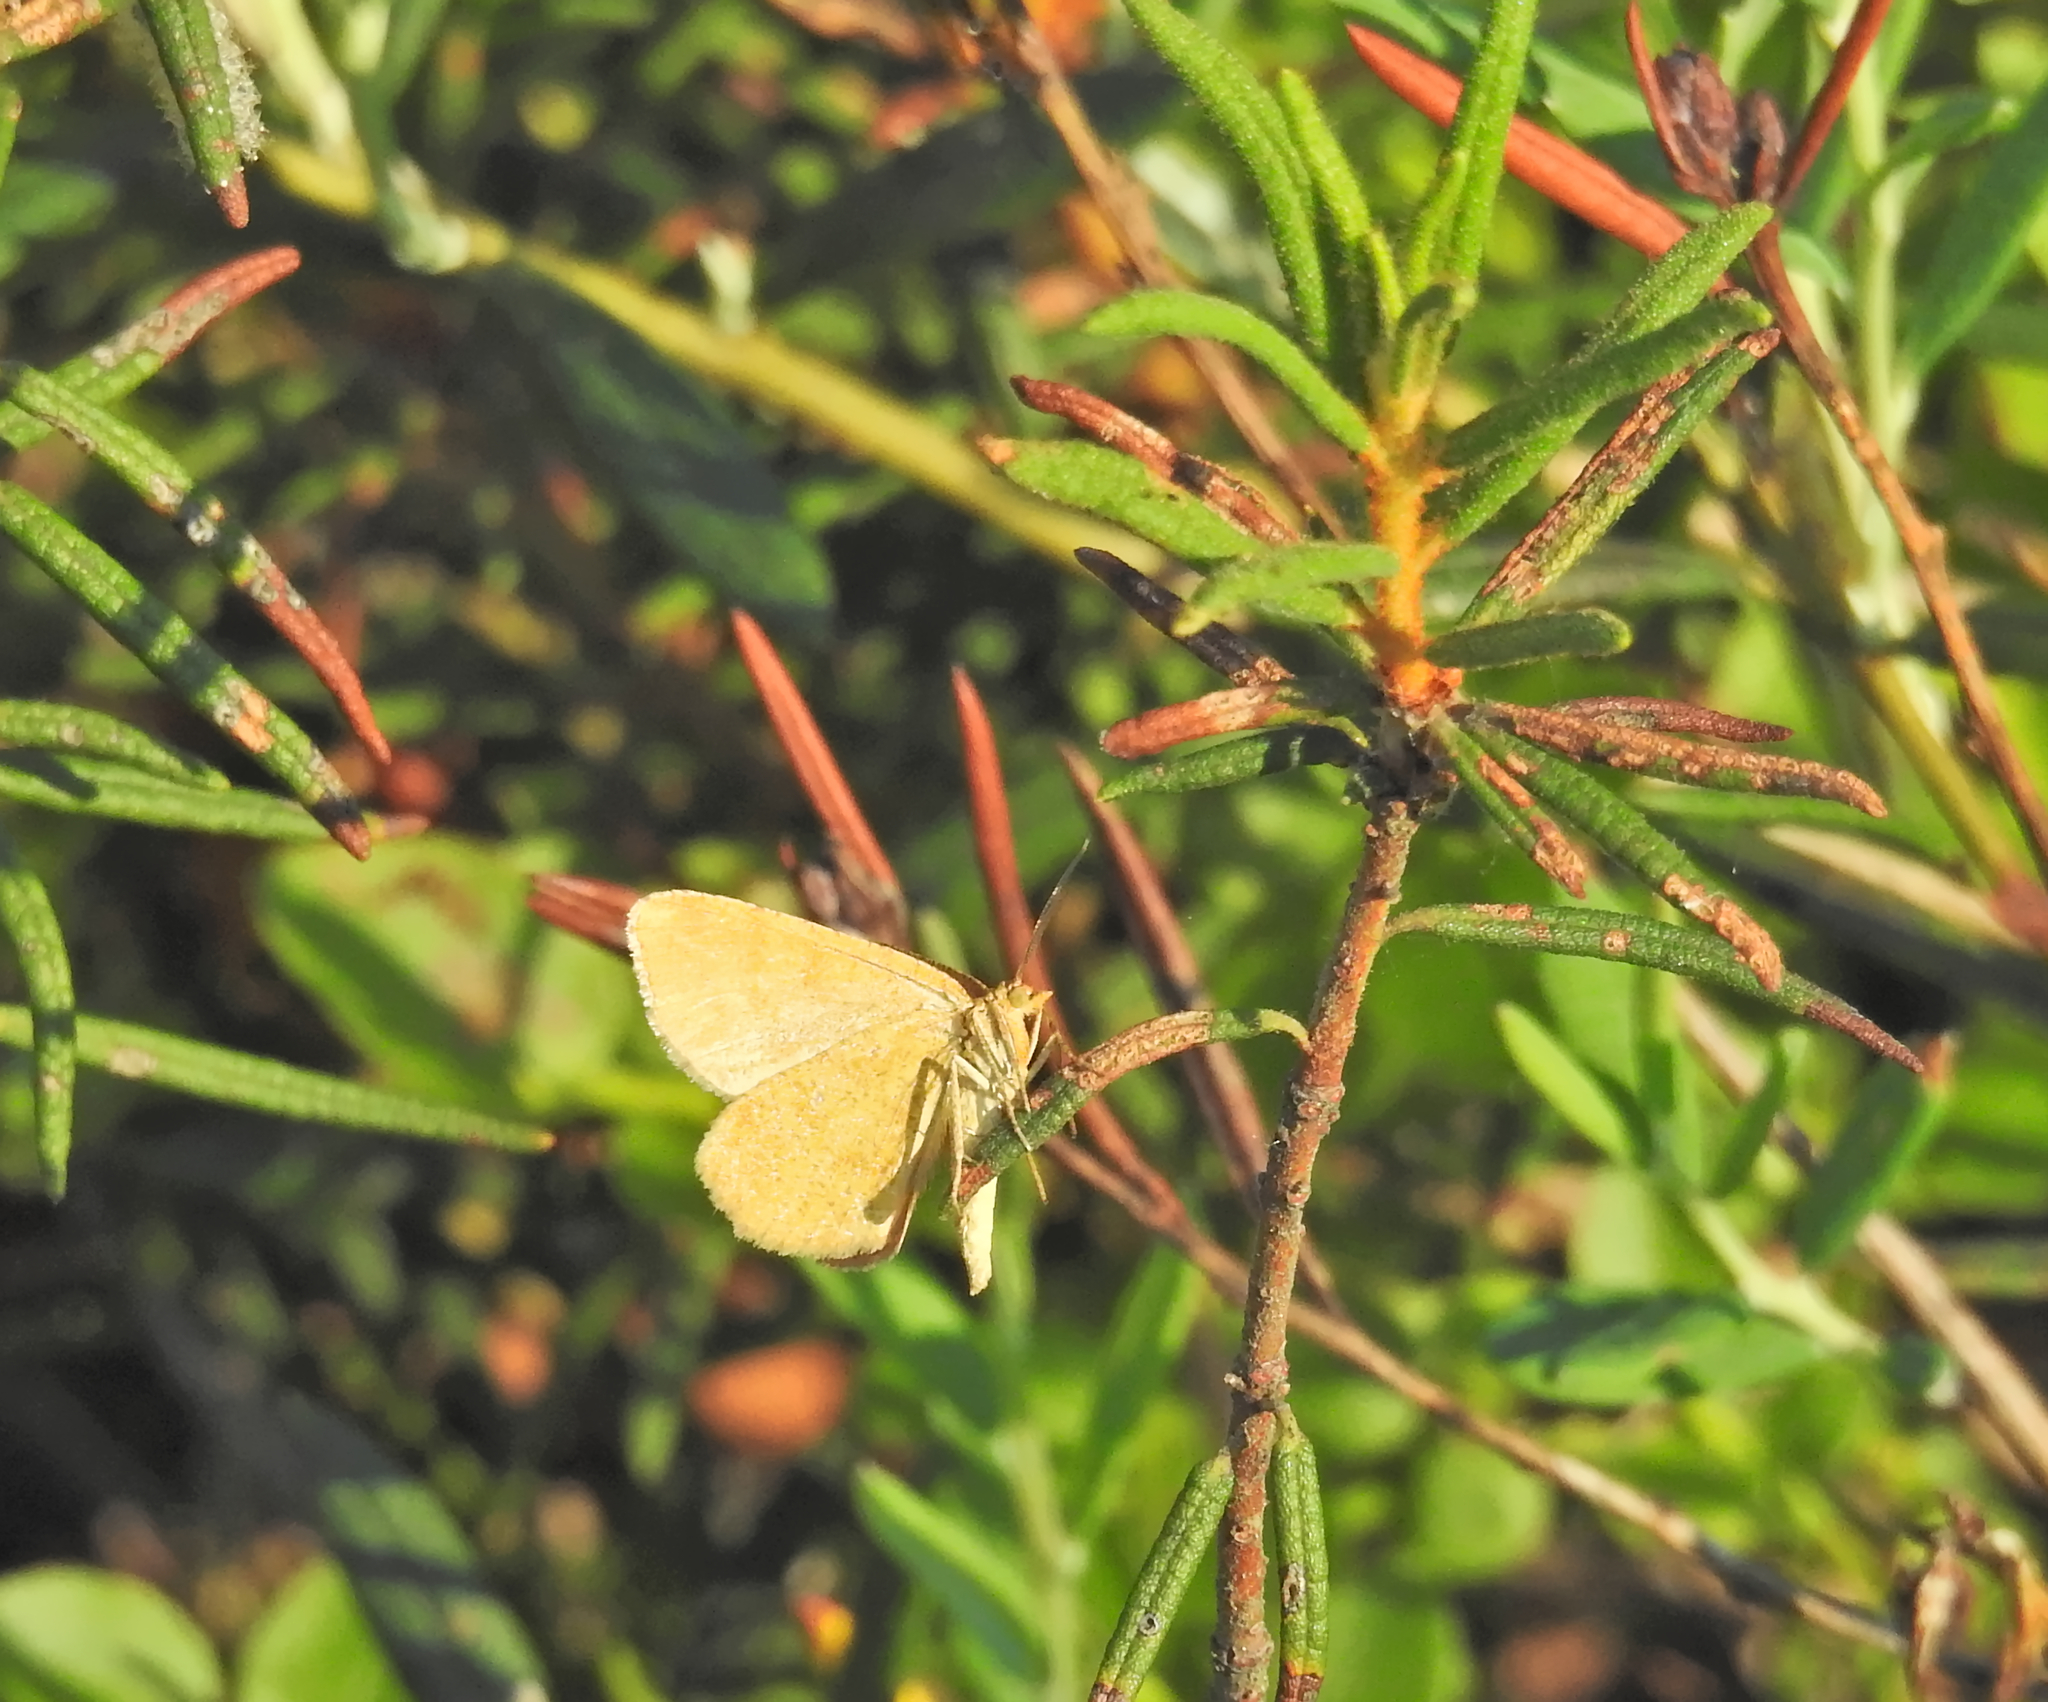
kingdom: Animalia
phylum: Arthropoda
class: Insecta
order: Lepidoptera
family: Geometridae
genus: Macaria
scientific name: Macaria brunneata
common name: Rannoch looper
